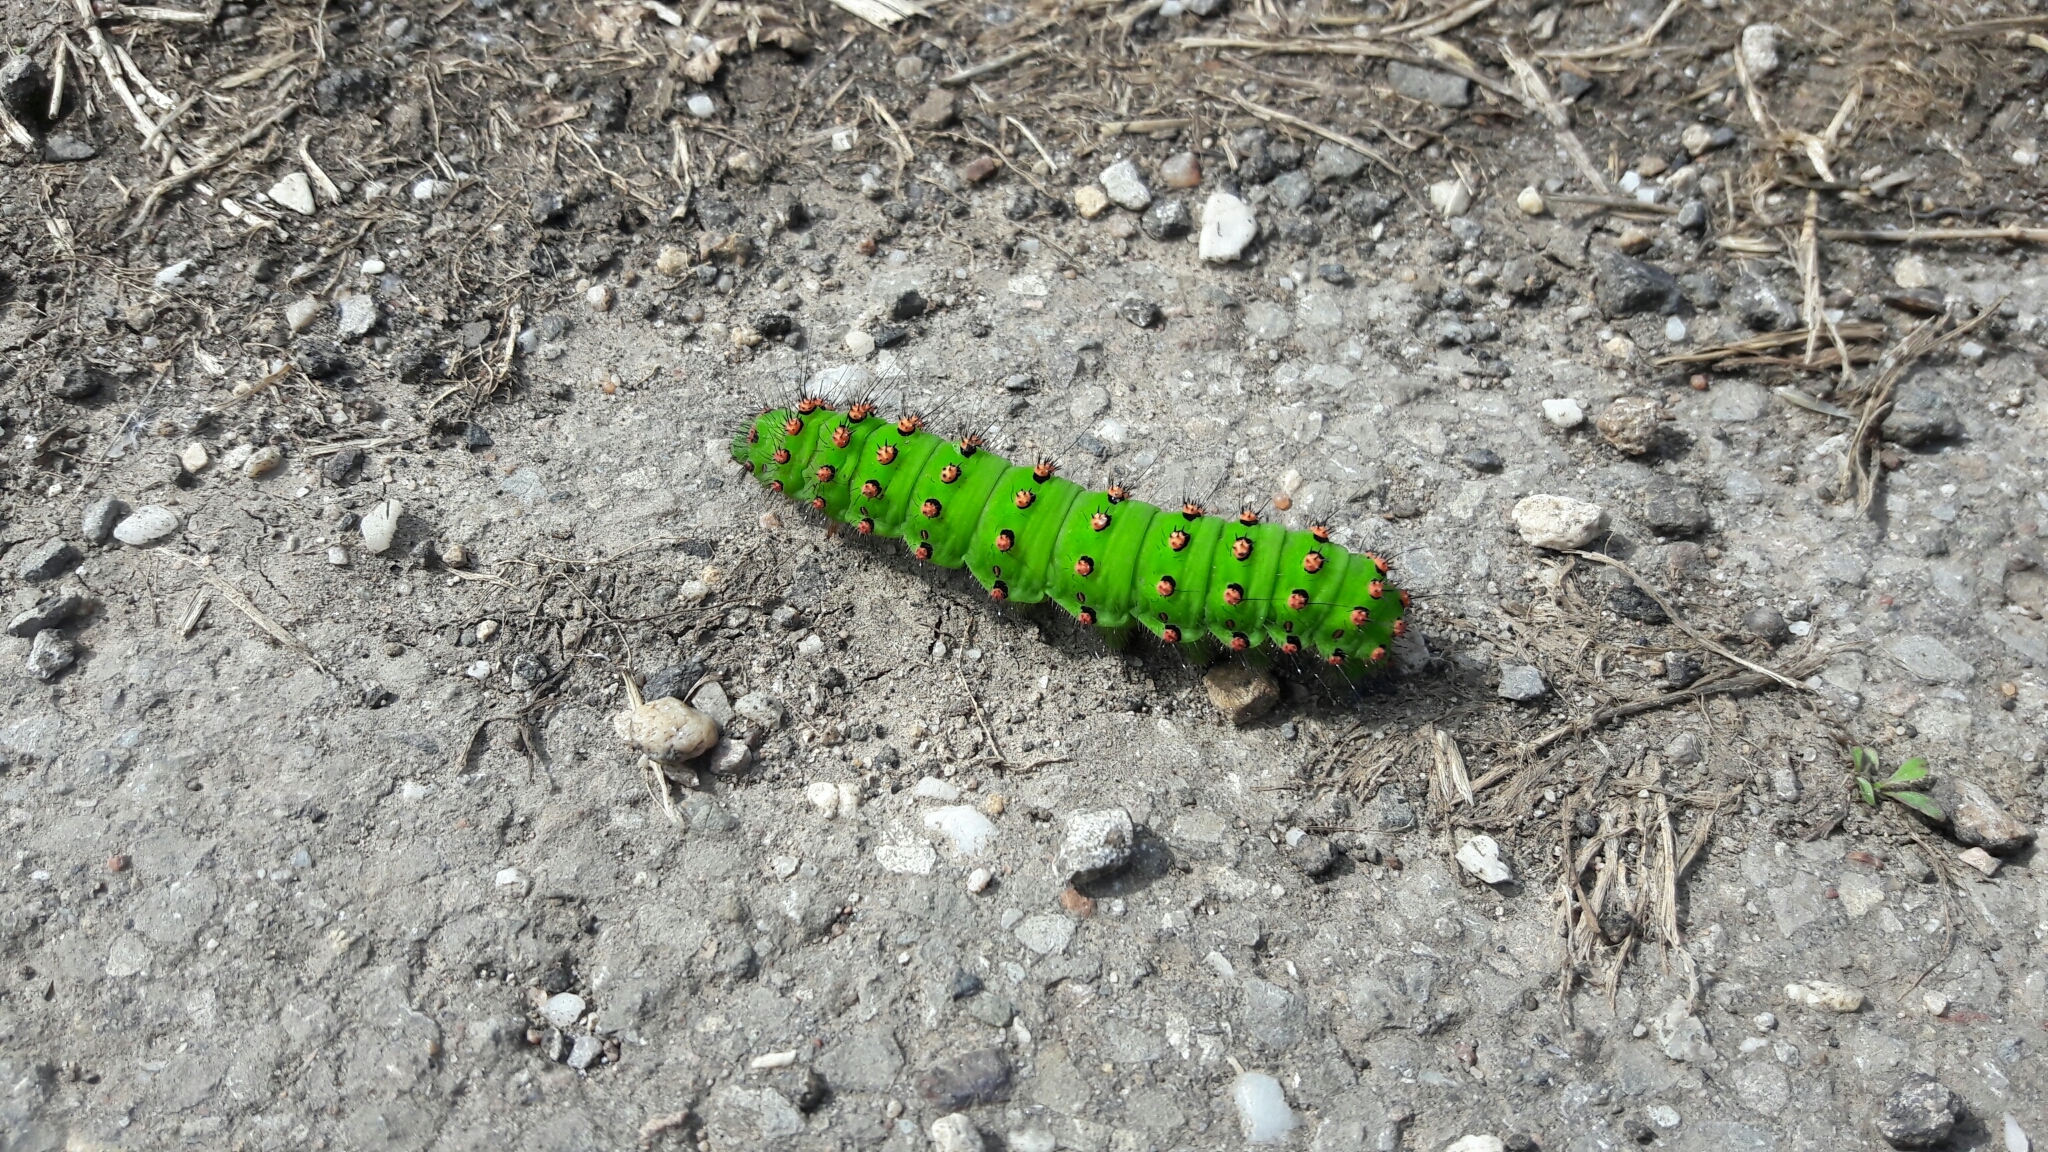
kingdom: Animalia
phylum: Arthropoda
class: Insecta
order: Lepidoptera
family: Saturniidae
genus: Saturnia
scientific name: Saturnia pavonia
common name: Emperor moth
